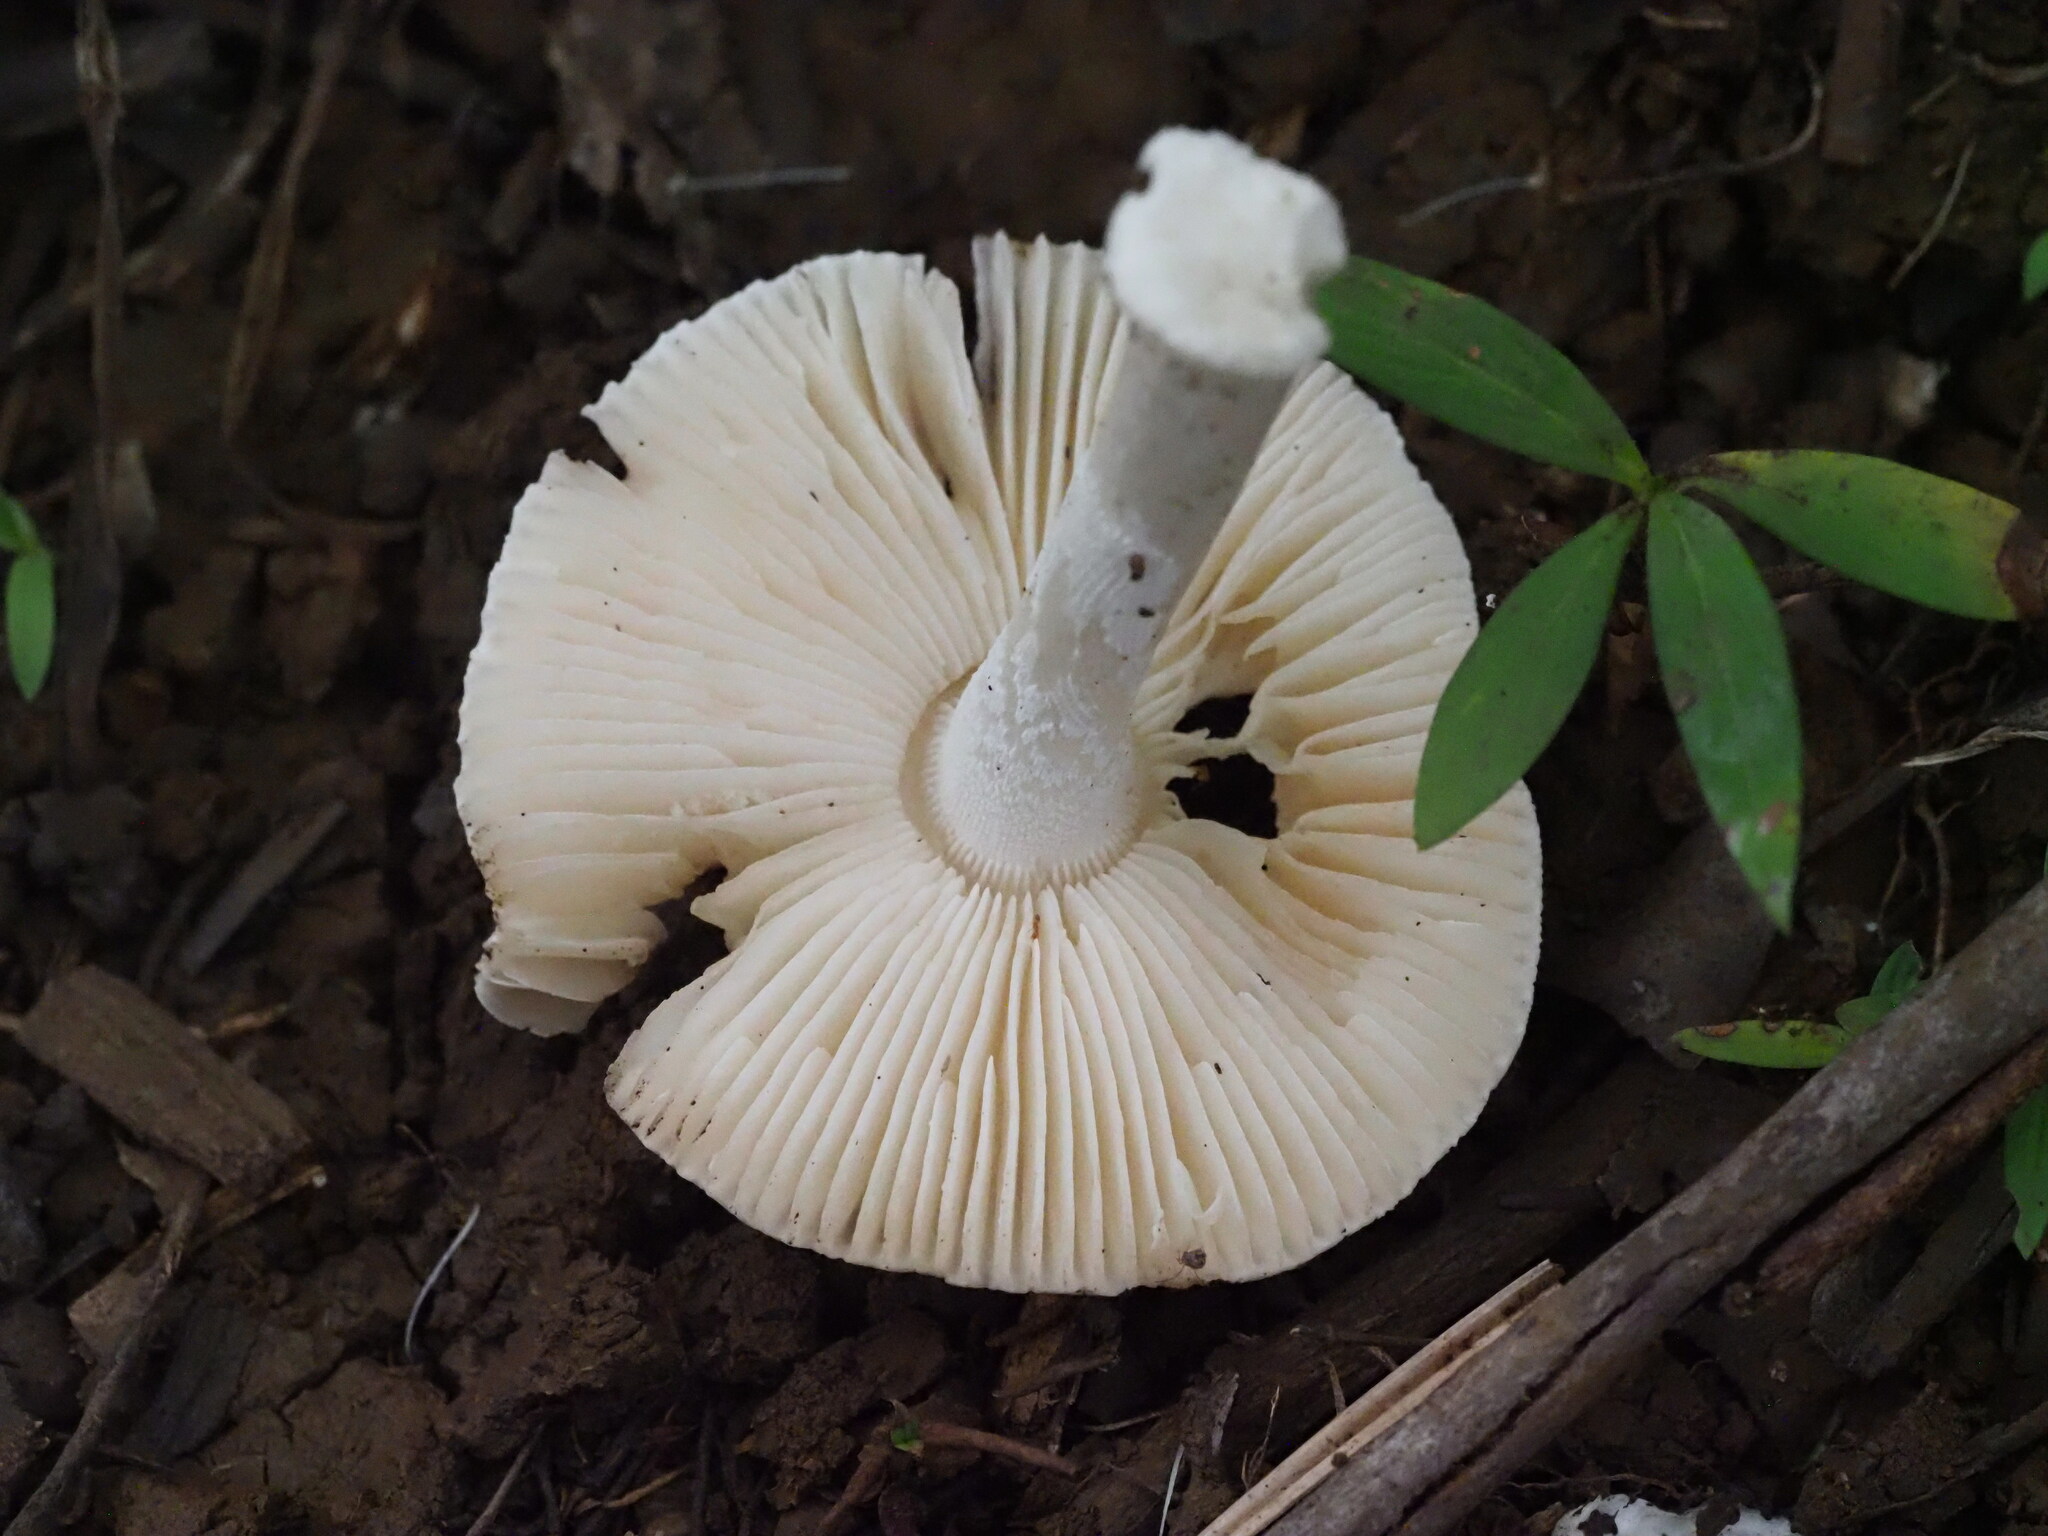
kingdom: Fungi
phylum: Basidiomycota
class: Agaricomycetes
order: Agaricales
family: Amanitaceae
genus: Amanita
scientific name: Amanita marmorata
